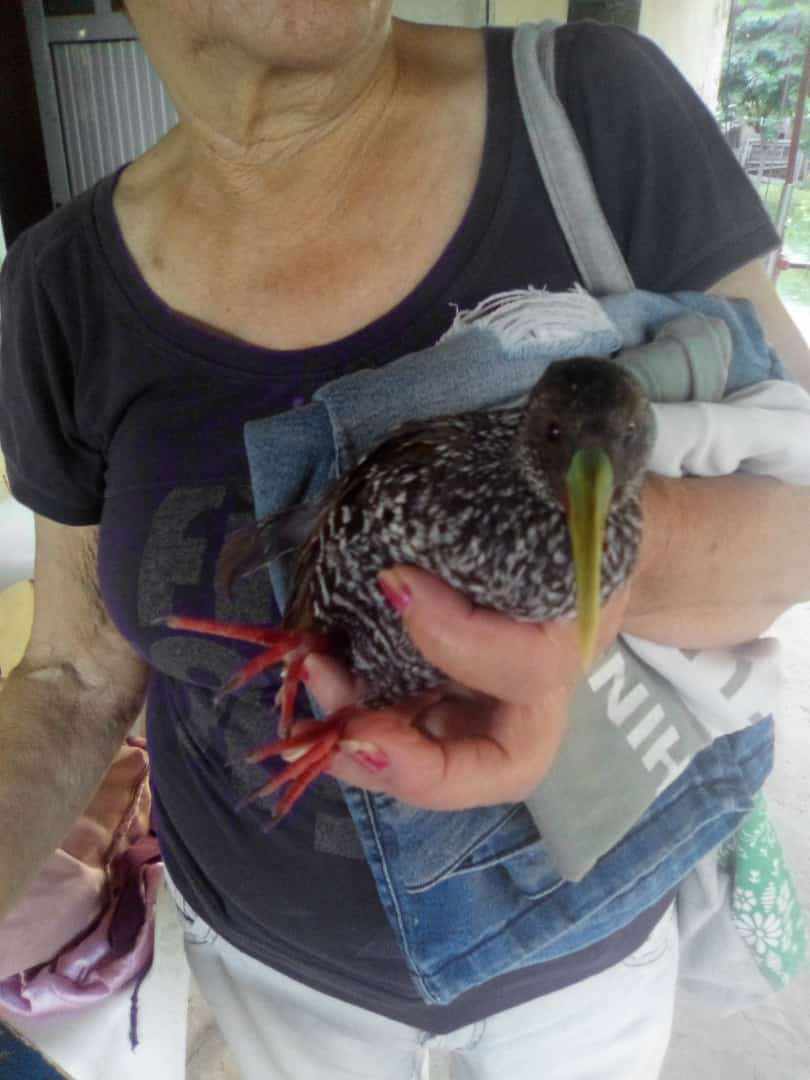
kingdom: Animalia
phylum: Chordata
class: Aves
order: Gruiformes
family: Rallidae
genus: Pardirallus
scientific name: Pardirallus maculatus
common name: Spotted rail
